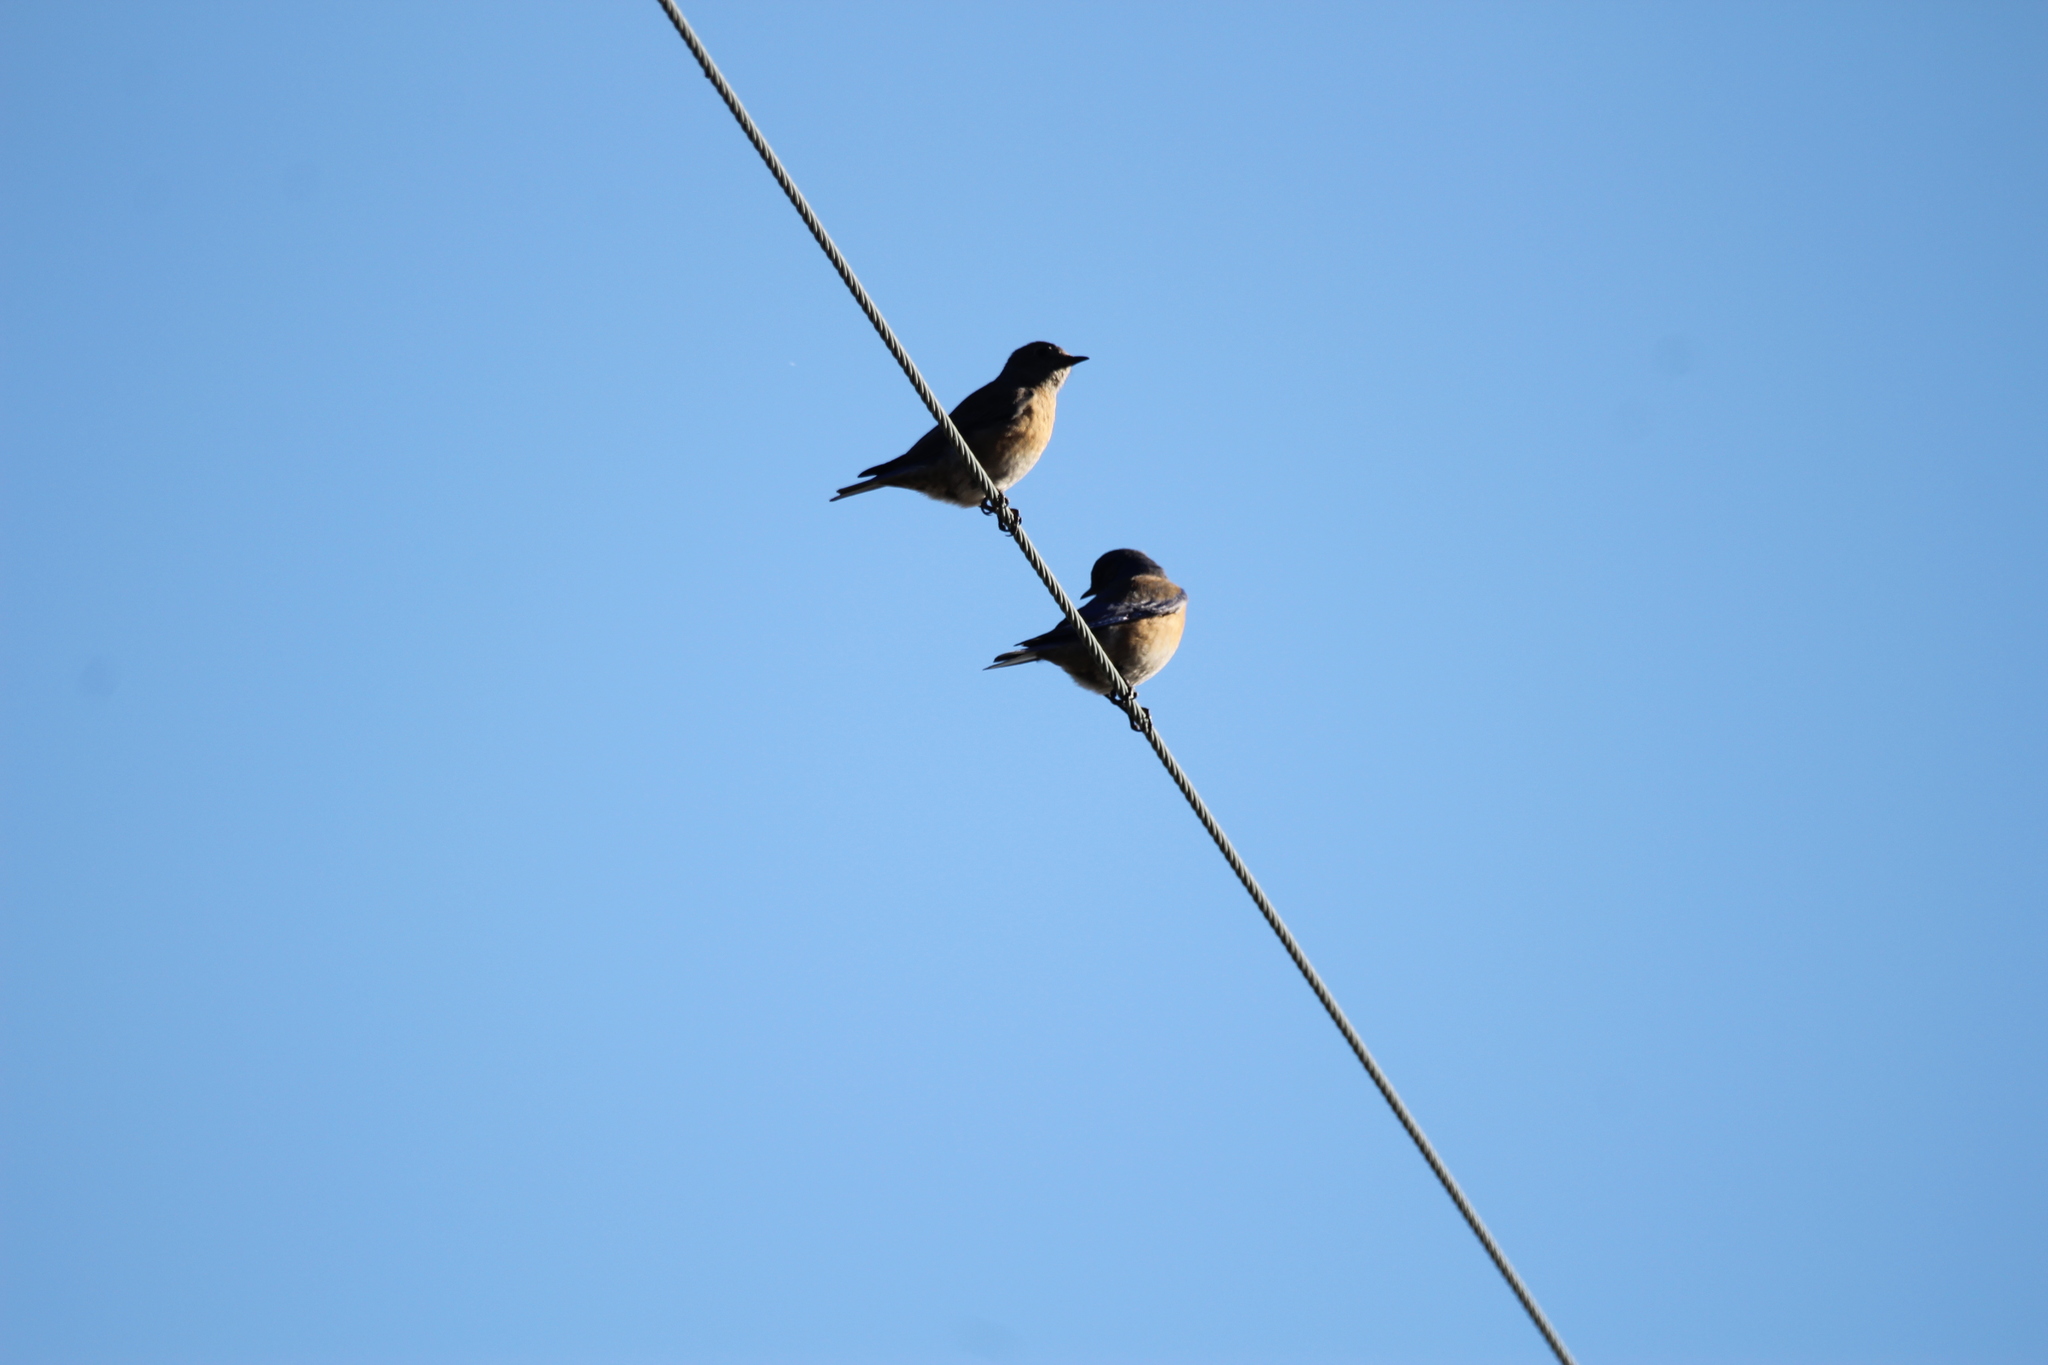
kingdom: Animalia
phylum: Chordata
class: Aves
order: Passeriformes
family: Turdidae
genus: Sialia
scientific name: Sialia mexicana
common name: Western bluebird
